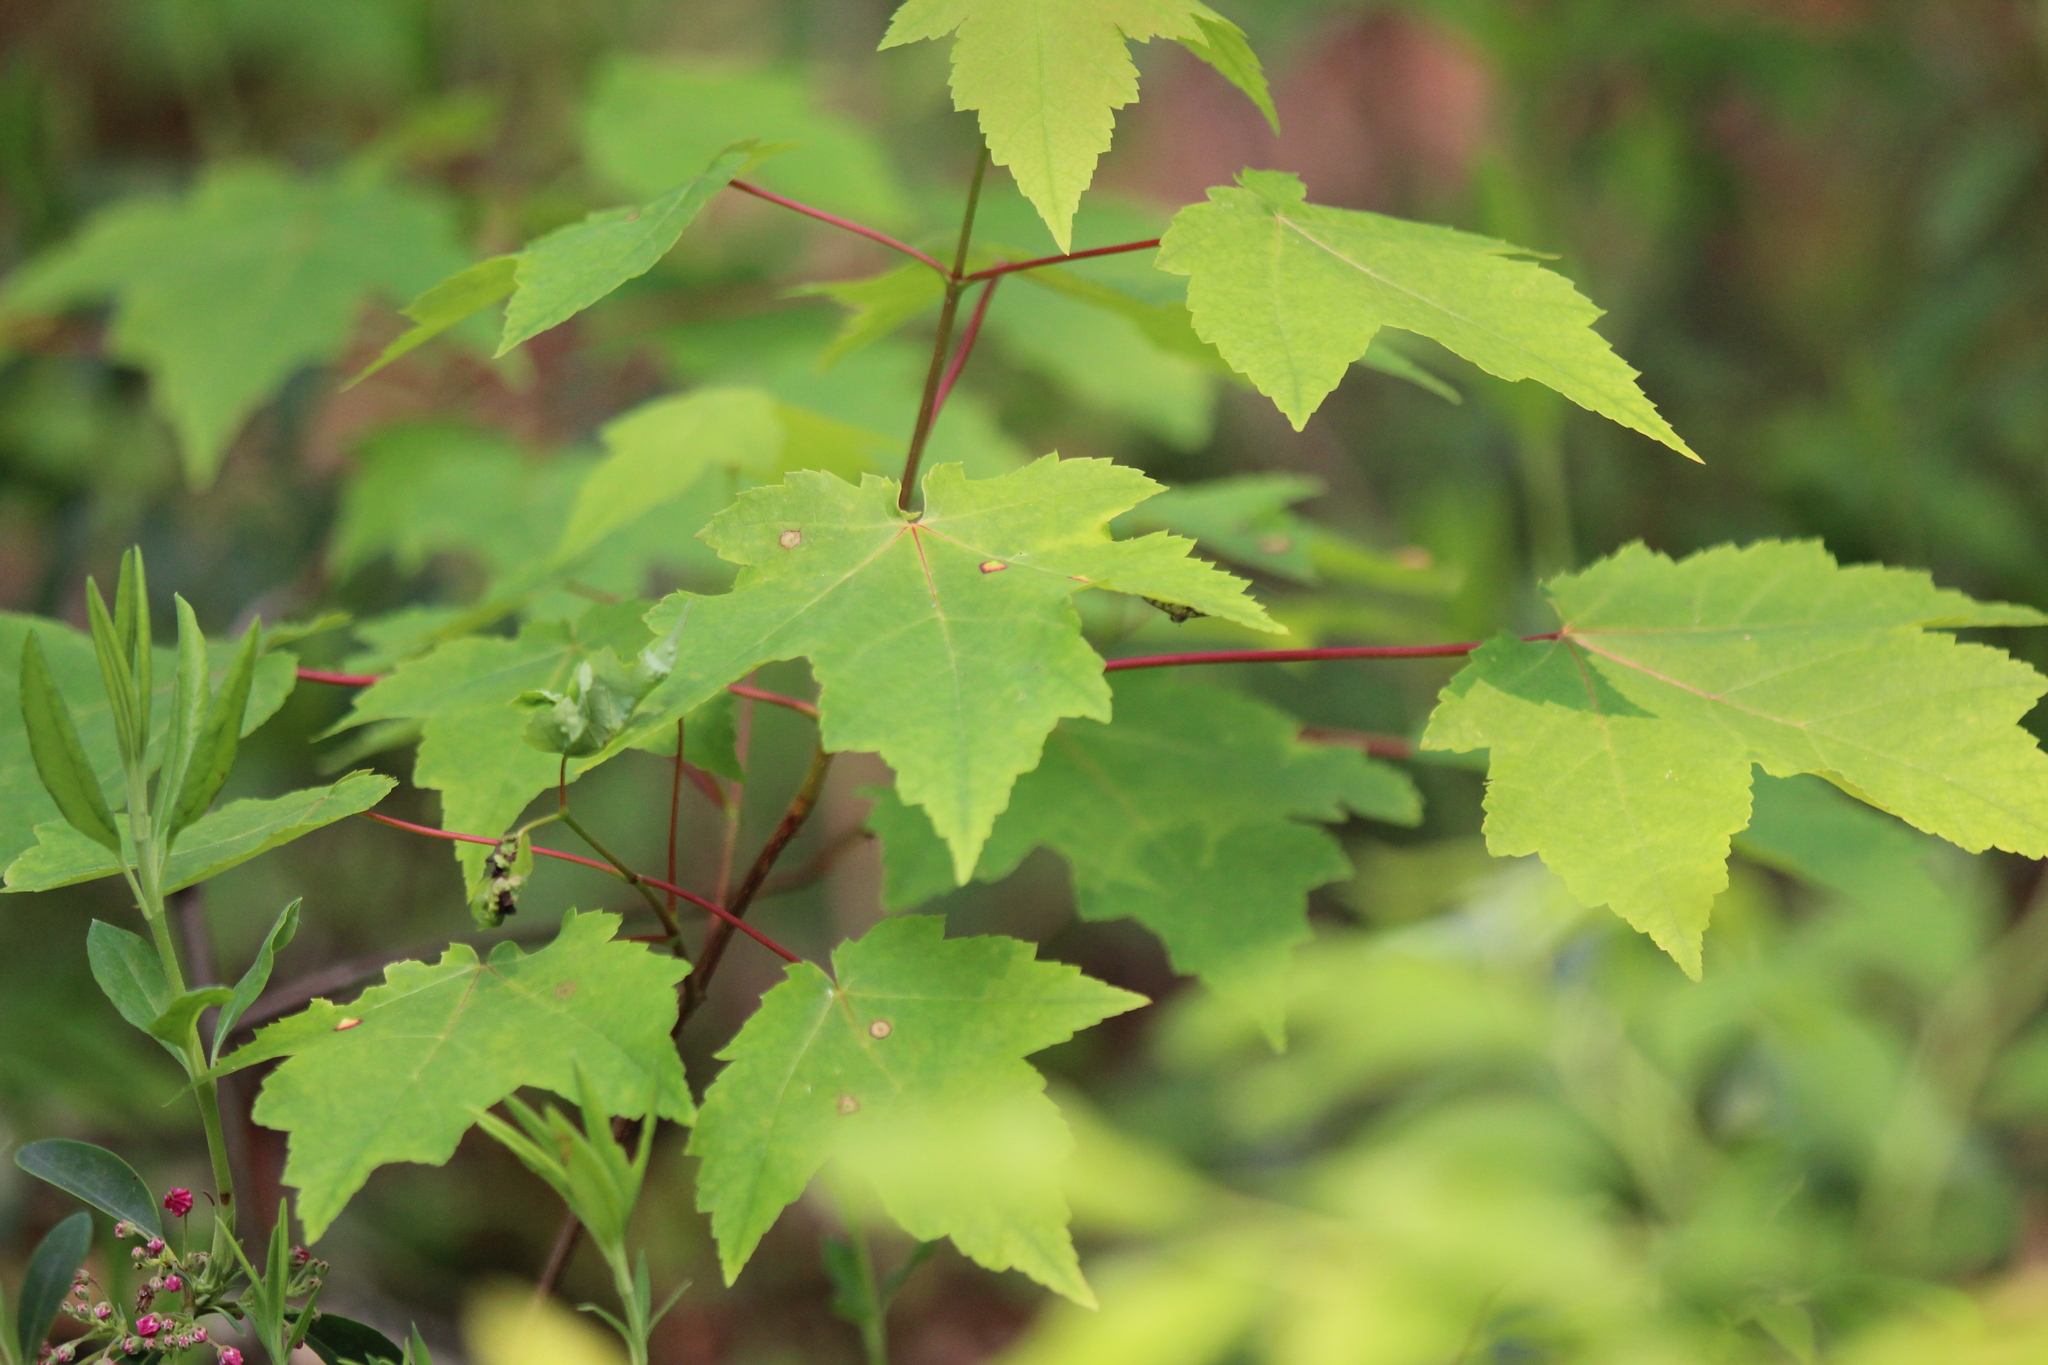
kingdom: Plantae
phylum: Tracheophyta
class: Magnoliopsida
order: Sapindales
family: Sapindaceae
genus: Acer
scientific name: Acer rubrum
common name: Red maple
